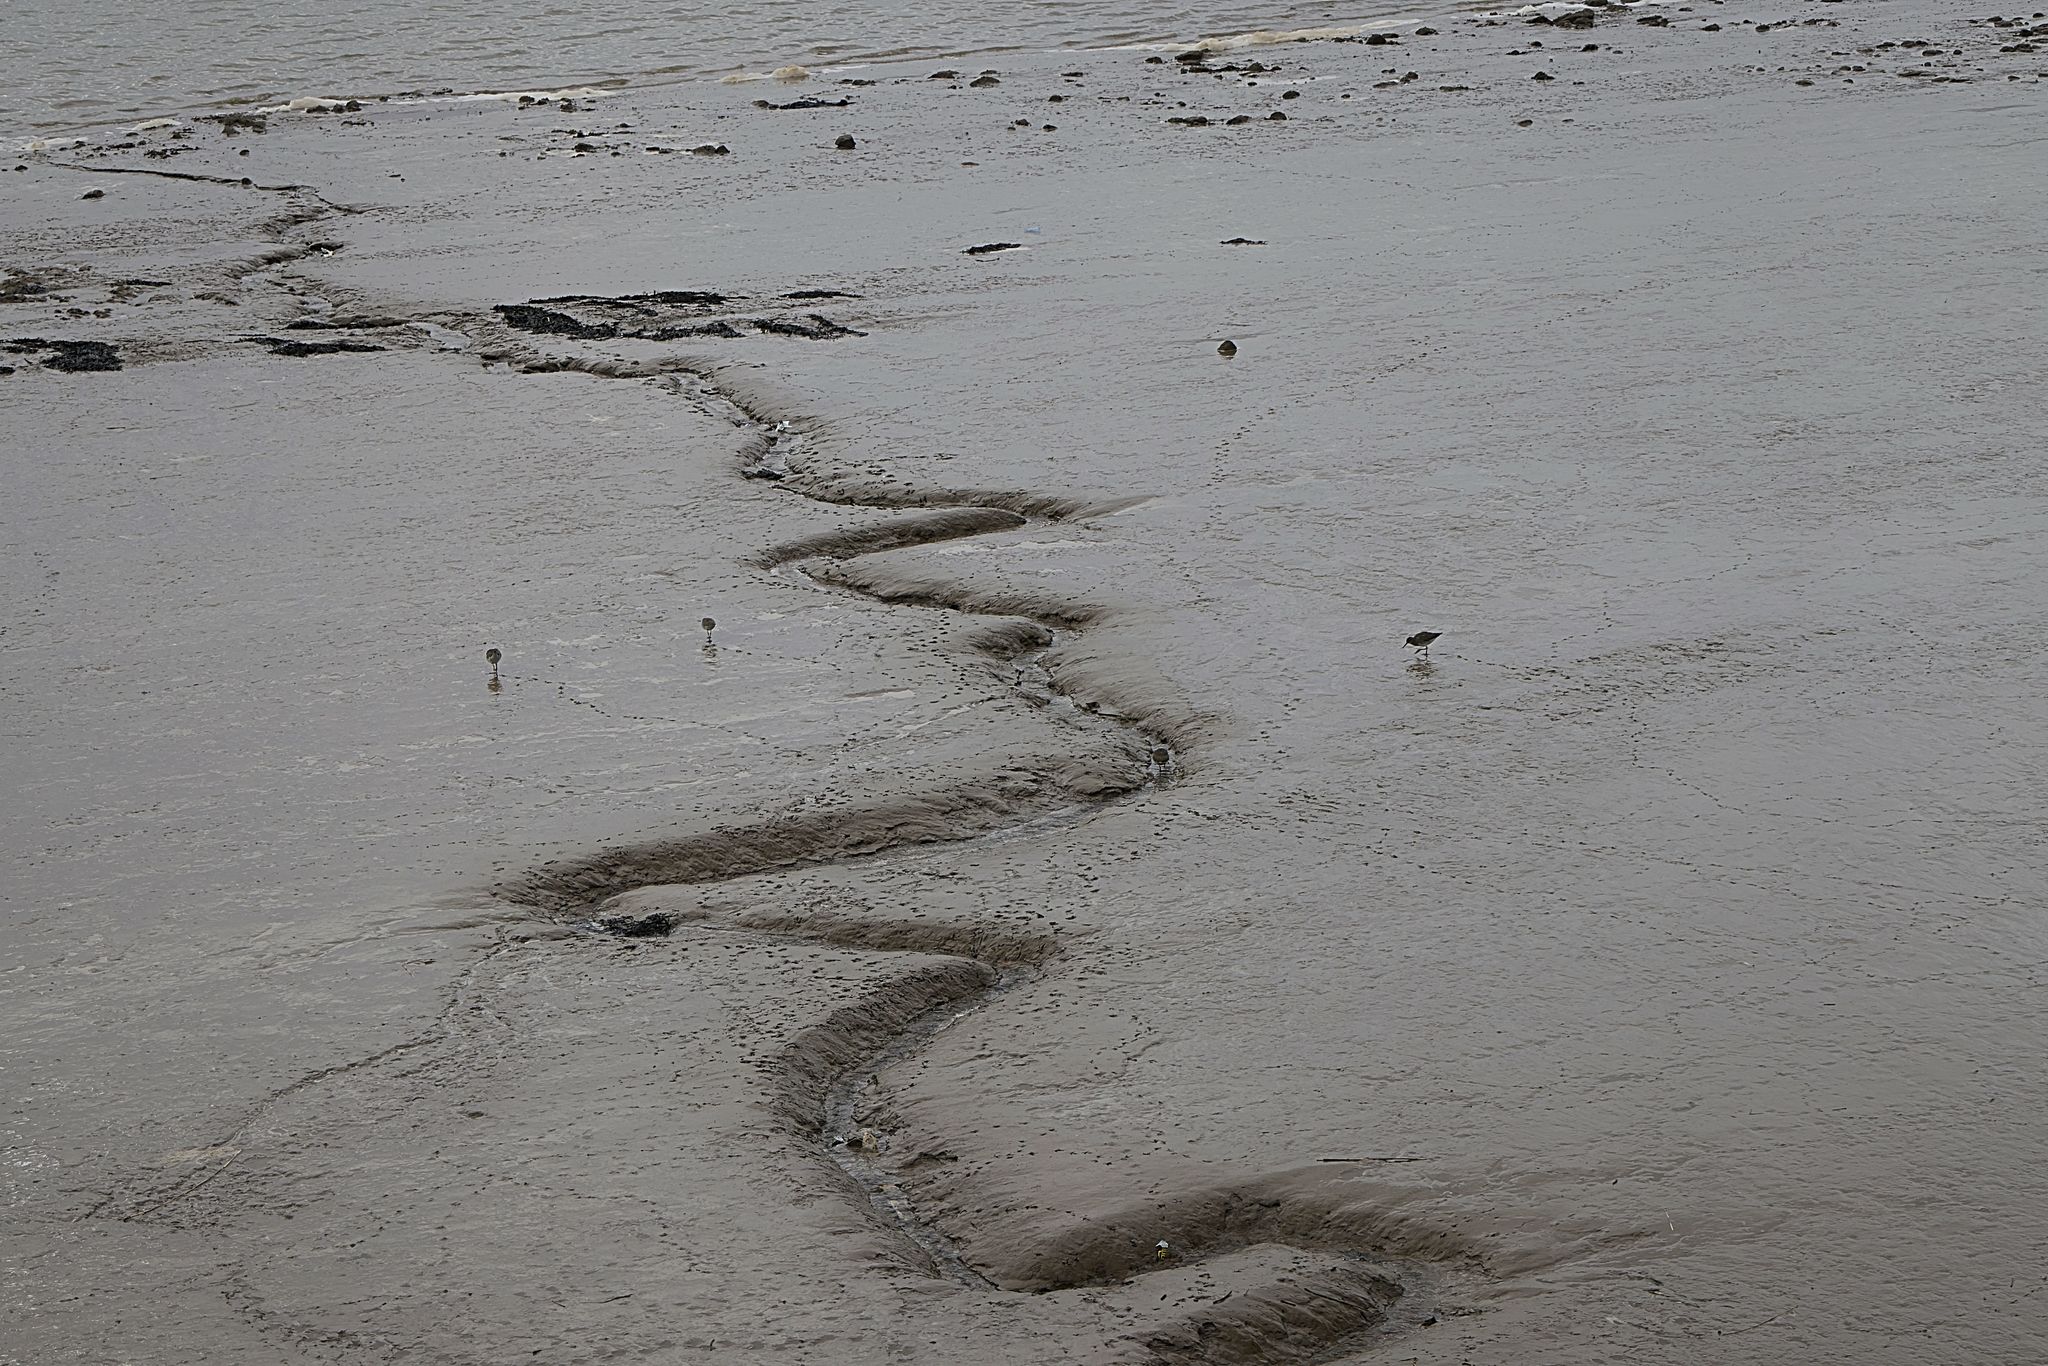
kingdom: Animalia
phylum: Chordata
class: Aves
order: Charadriiformes
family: Scolopacidae
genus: Tringa
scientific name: Tringa totanus
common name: Common redshank
